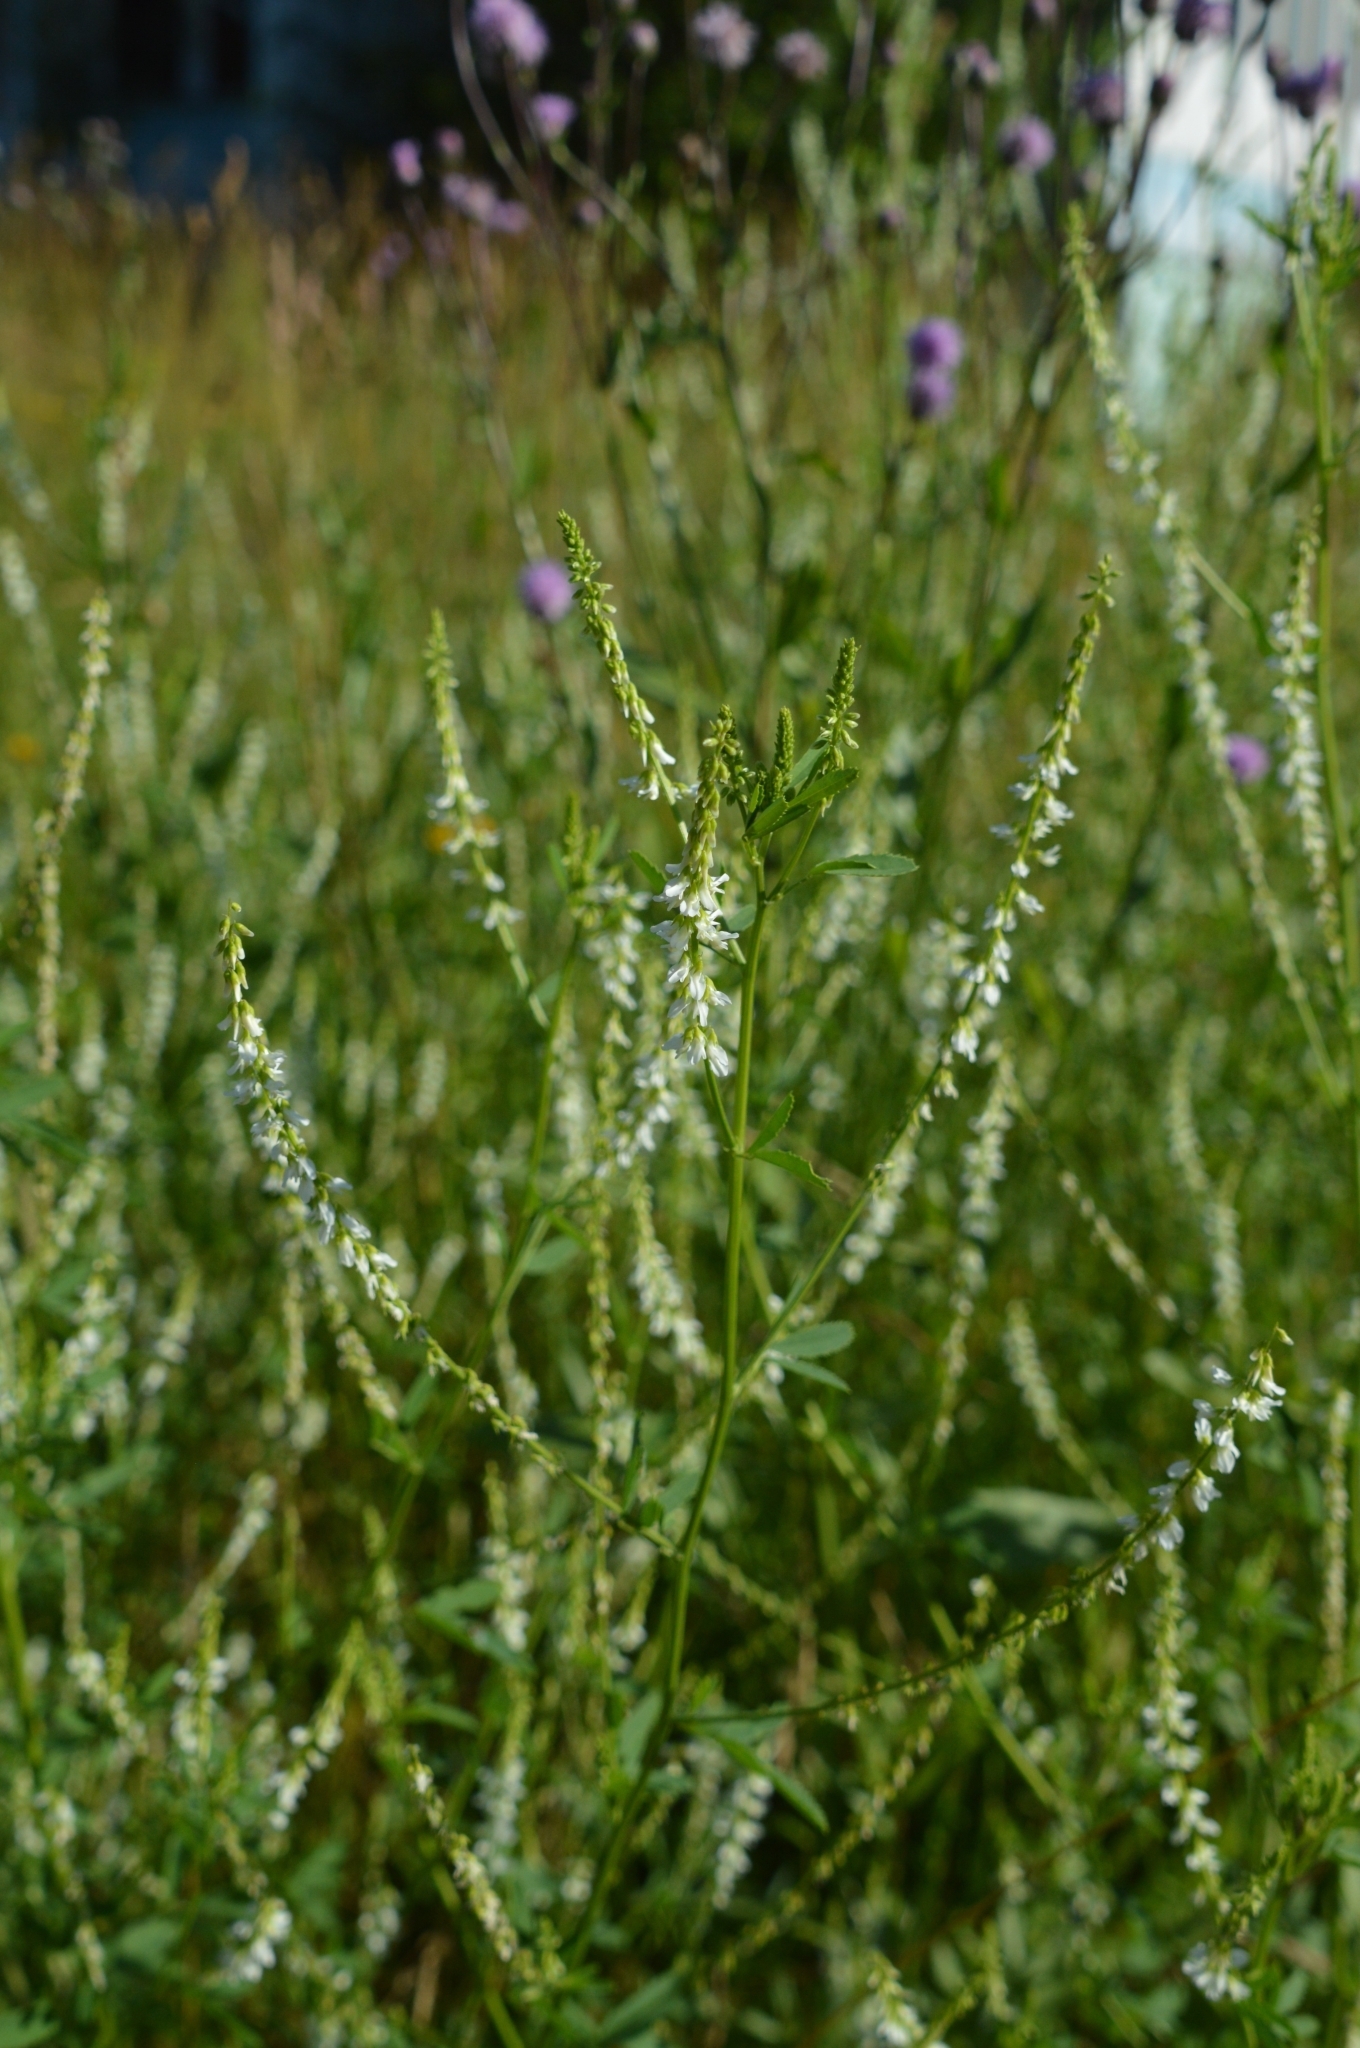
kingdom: Plantae
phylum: Tracheophyta
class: Magnoliopsida
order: Fabales
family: Fabaceae
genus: Melilotus
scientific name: Melilotus albus
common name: White melilot
